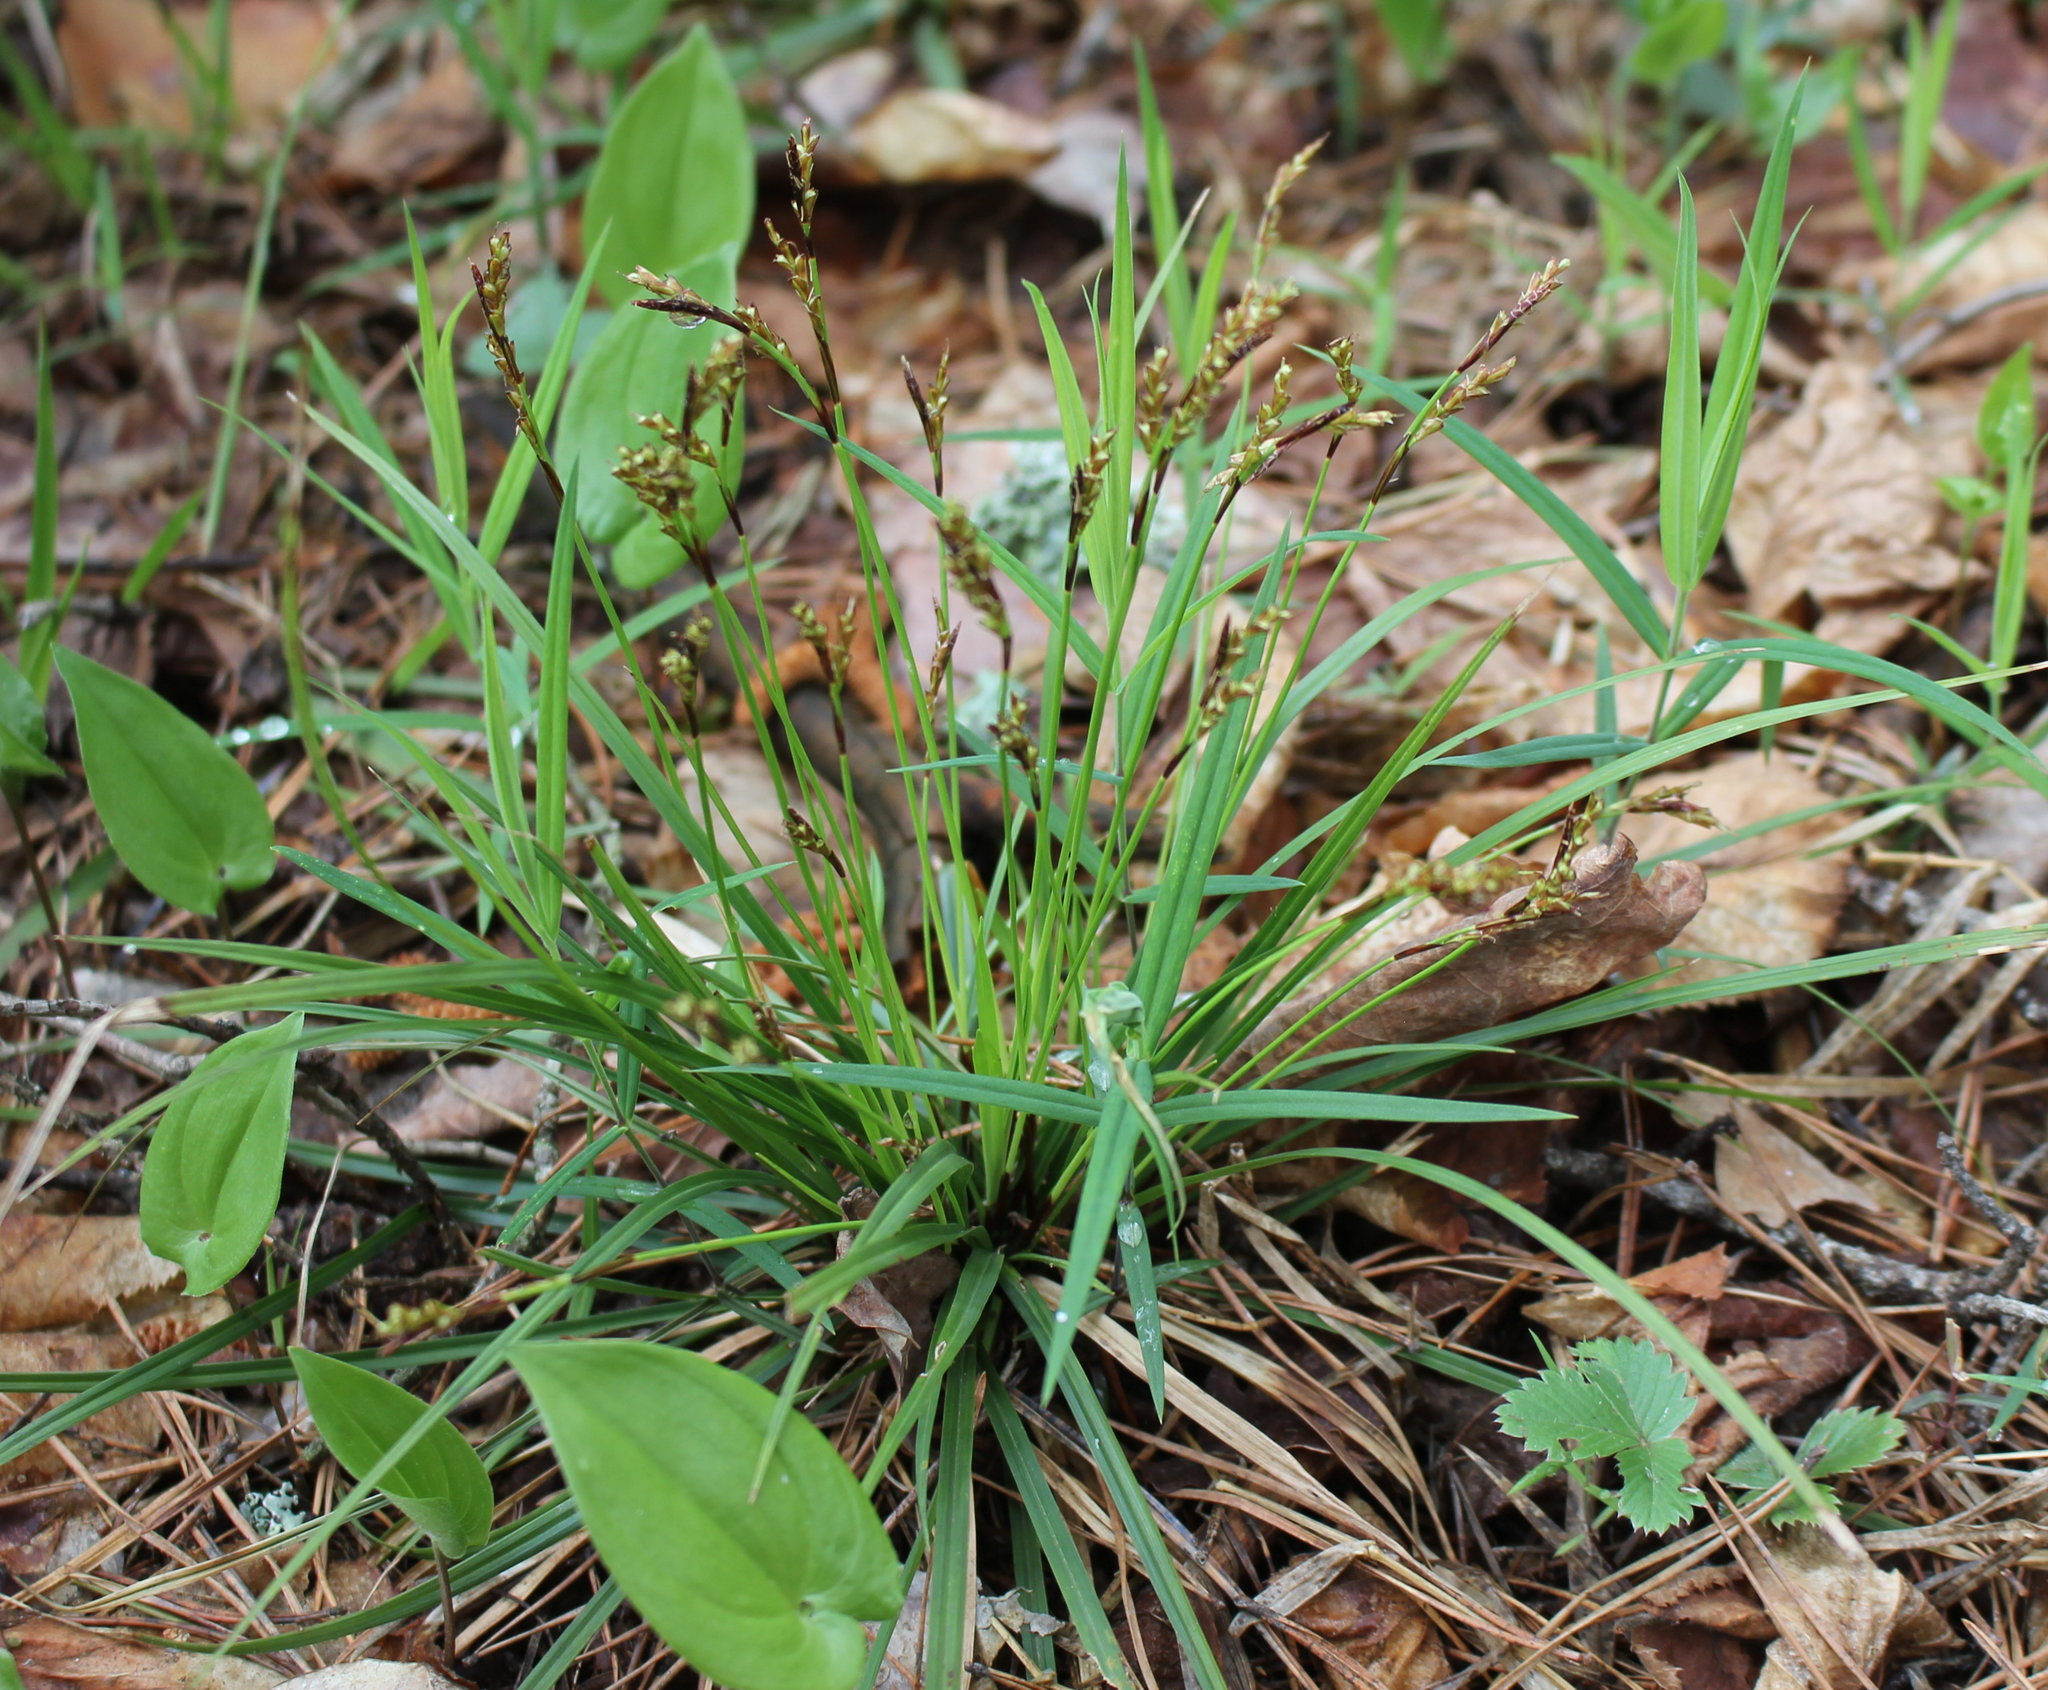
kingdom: Plantae
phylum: Tracheophyta
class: Liliopsida
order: Poales
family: Cyperaceae
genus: Carex
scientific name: Carex digitata
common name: Fingered sedge
